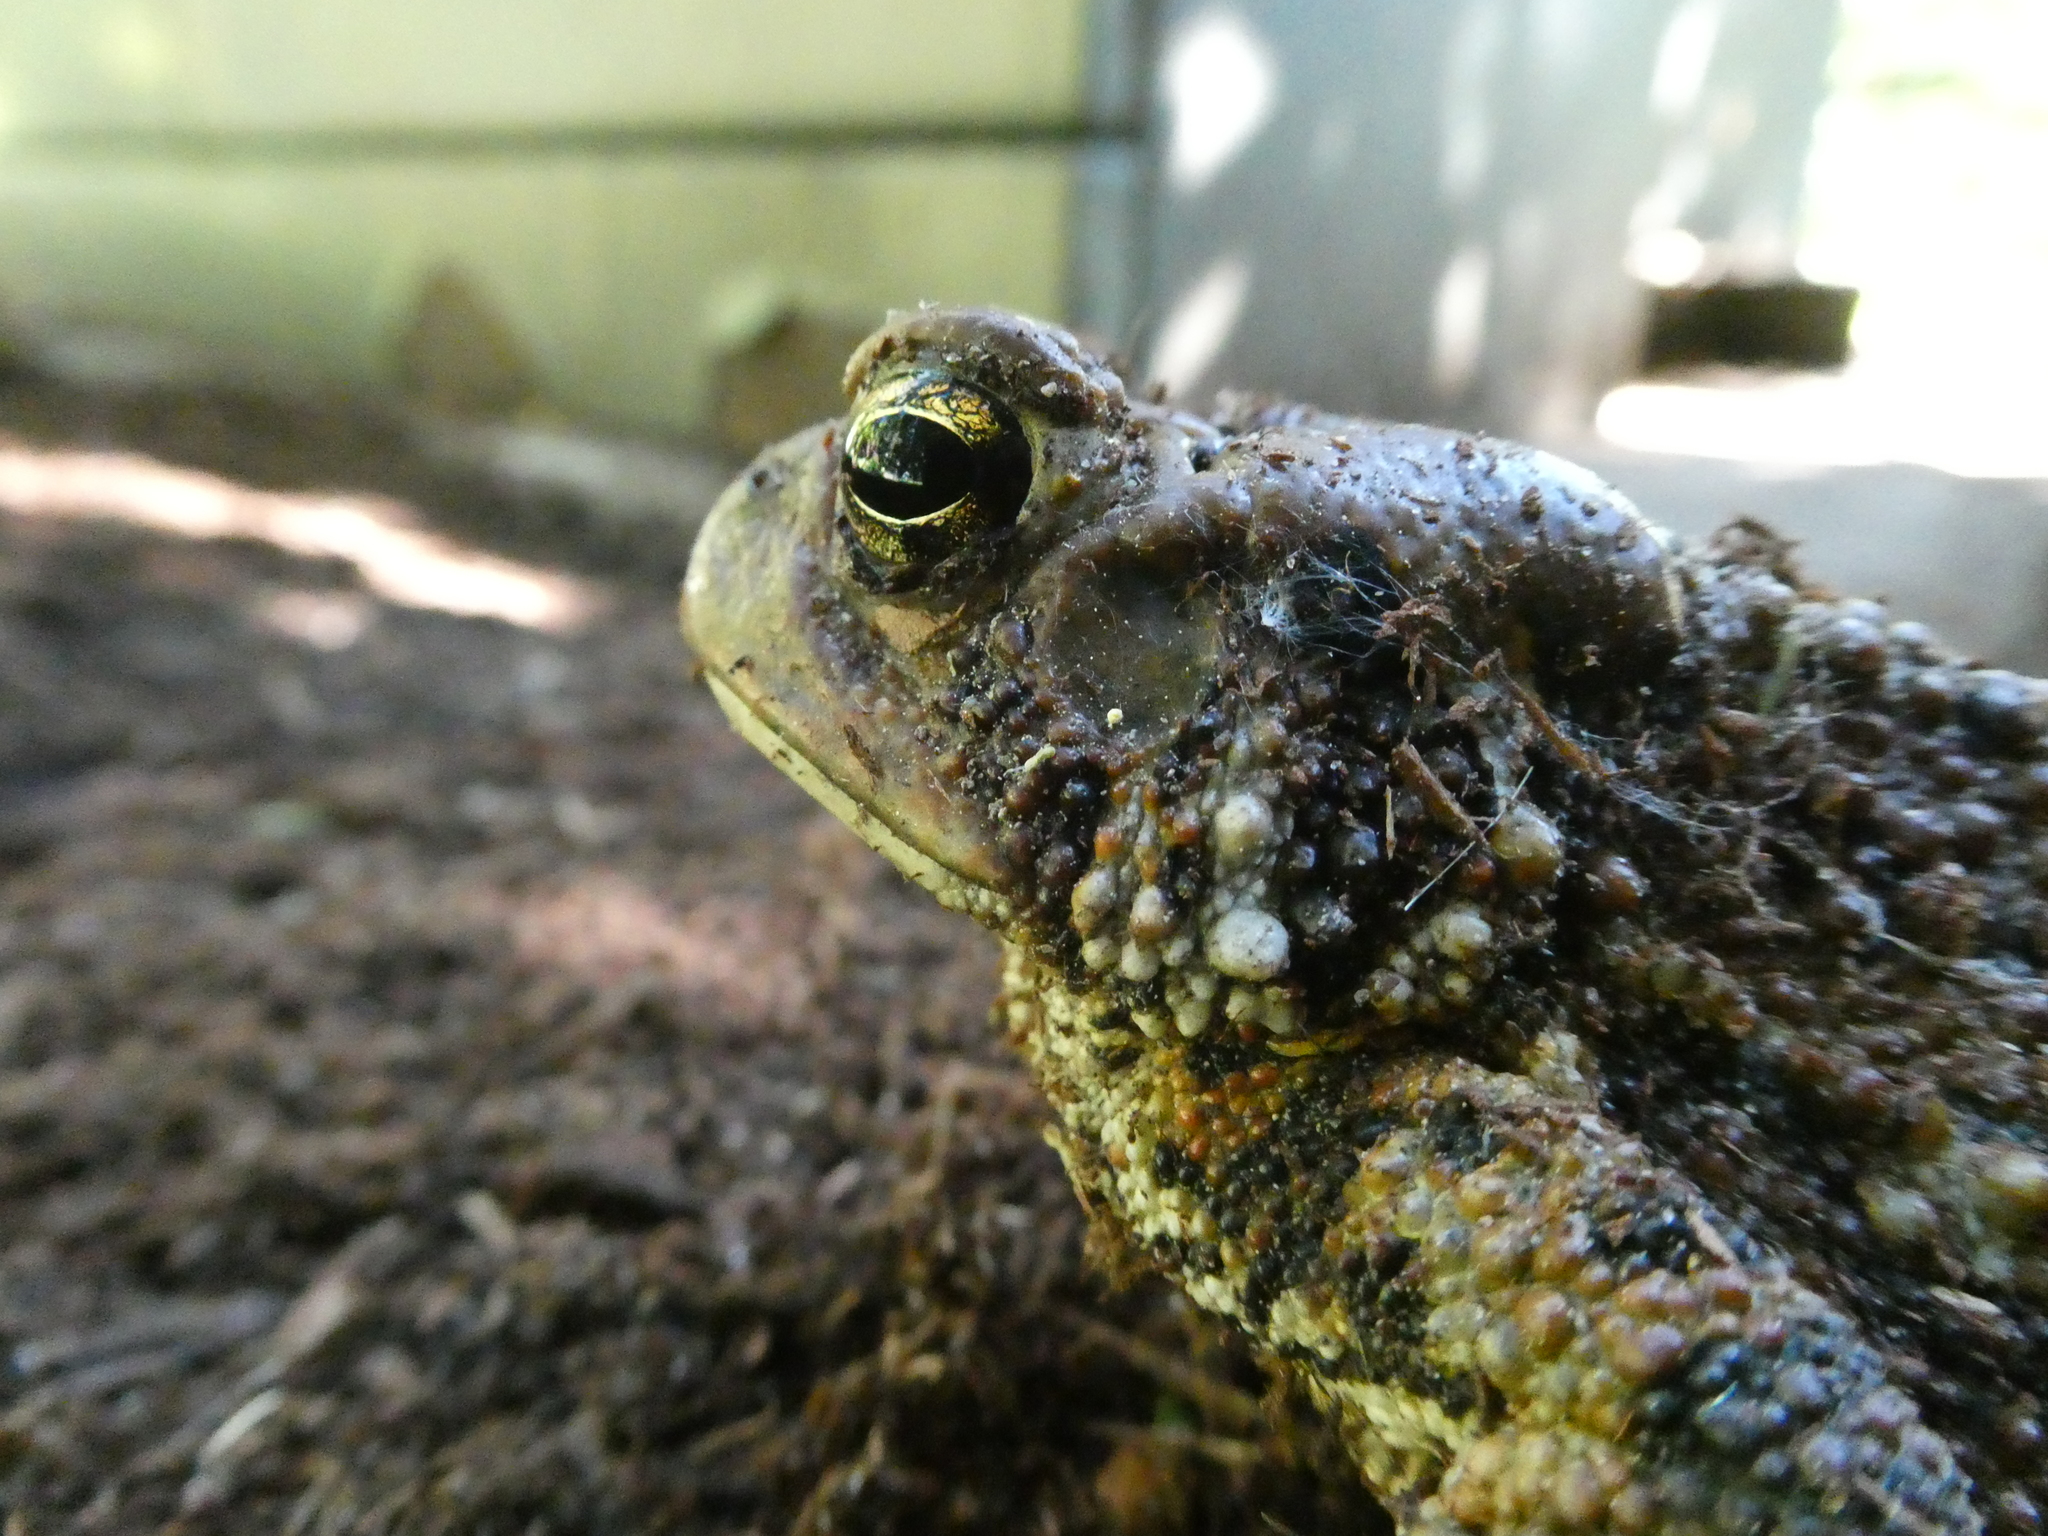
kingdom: Animalia
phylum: Chordata
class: Amphibia
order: Anura
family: Bufonidae
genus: Anaxyrus
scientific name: Anaxyrus americanus
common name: American toad
